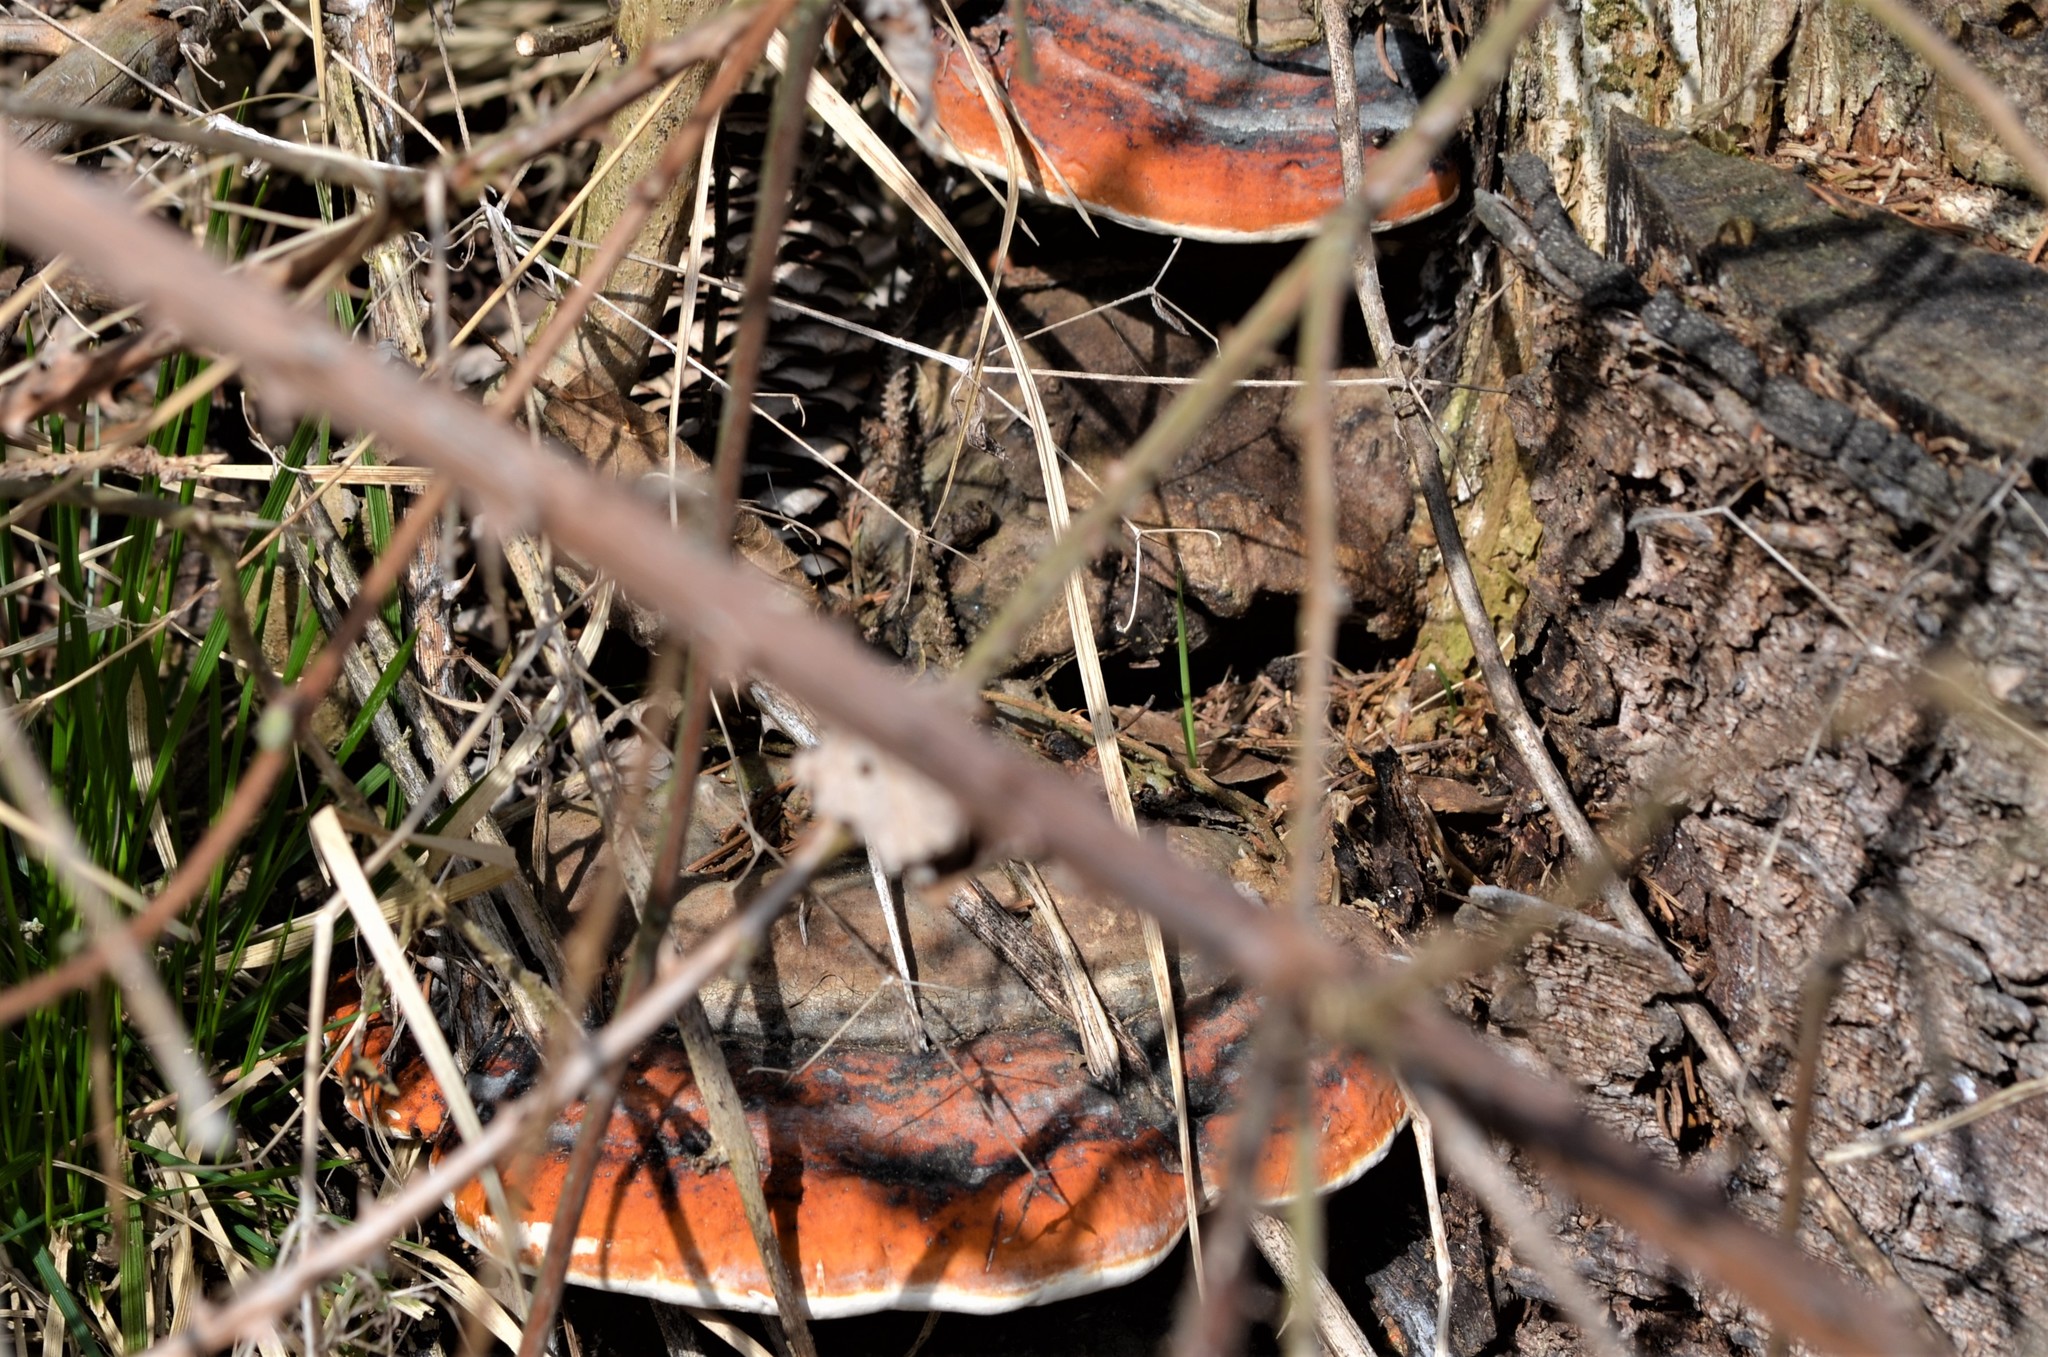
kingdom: Fungi
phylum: Basidiomycota
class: Agaricomycetes
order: Polyporales
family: Fomitopsidaceae
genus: Fomitopsis
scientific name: Fomitopsis pinicola
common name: Red-belted bracket
